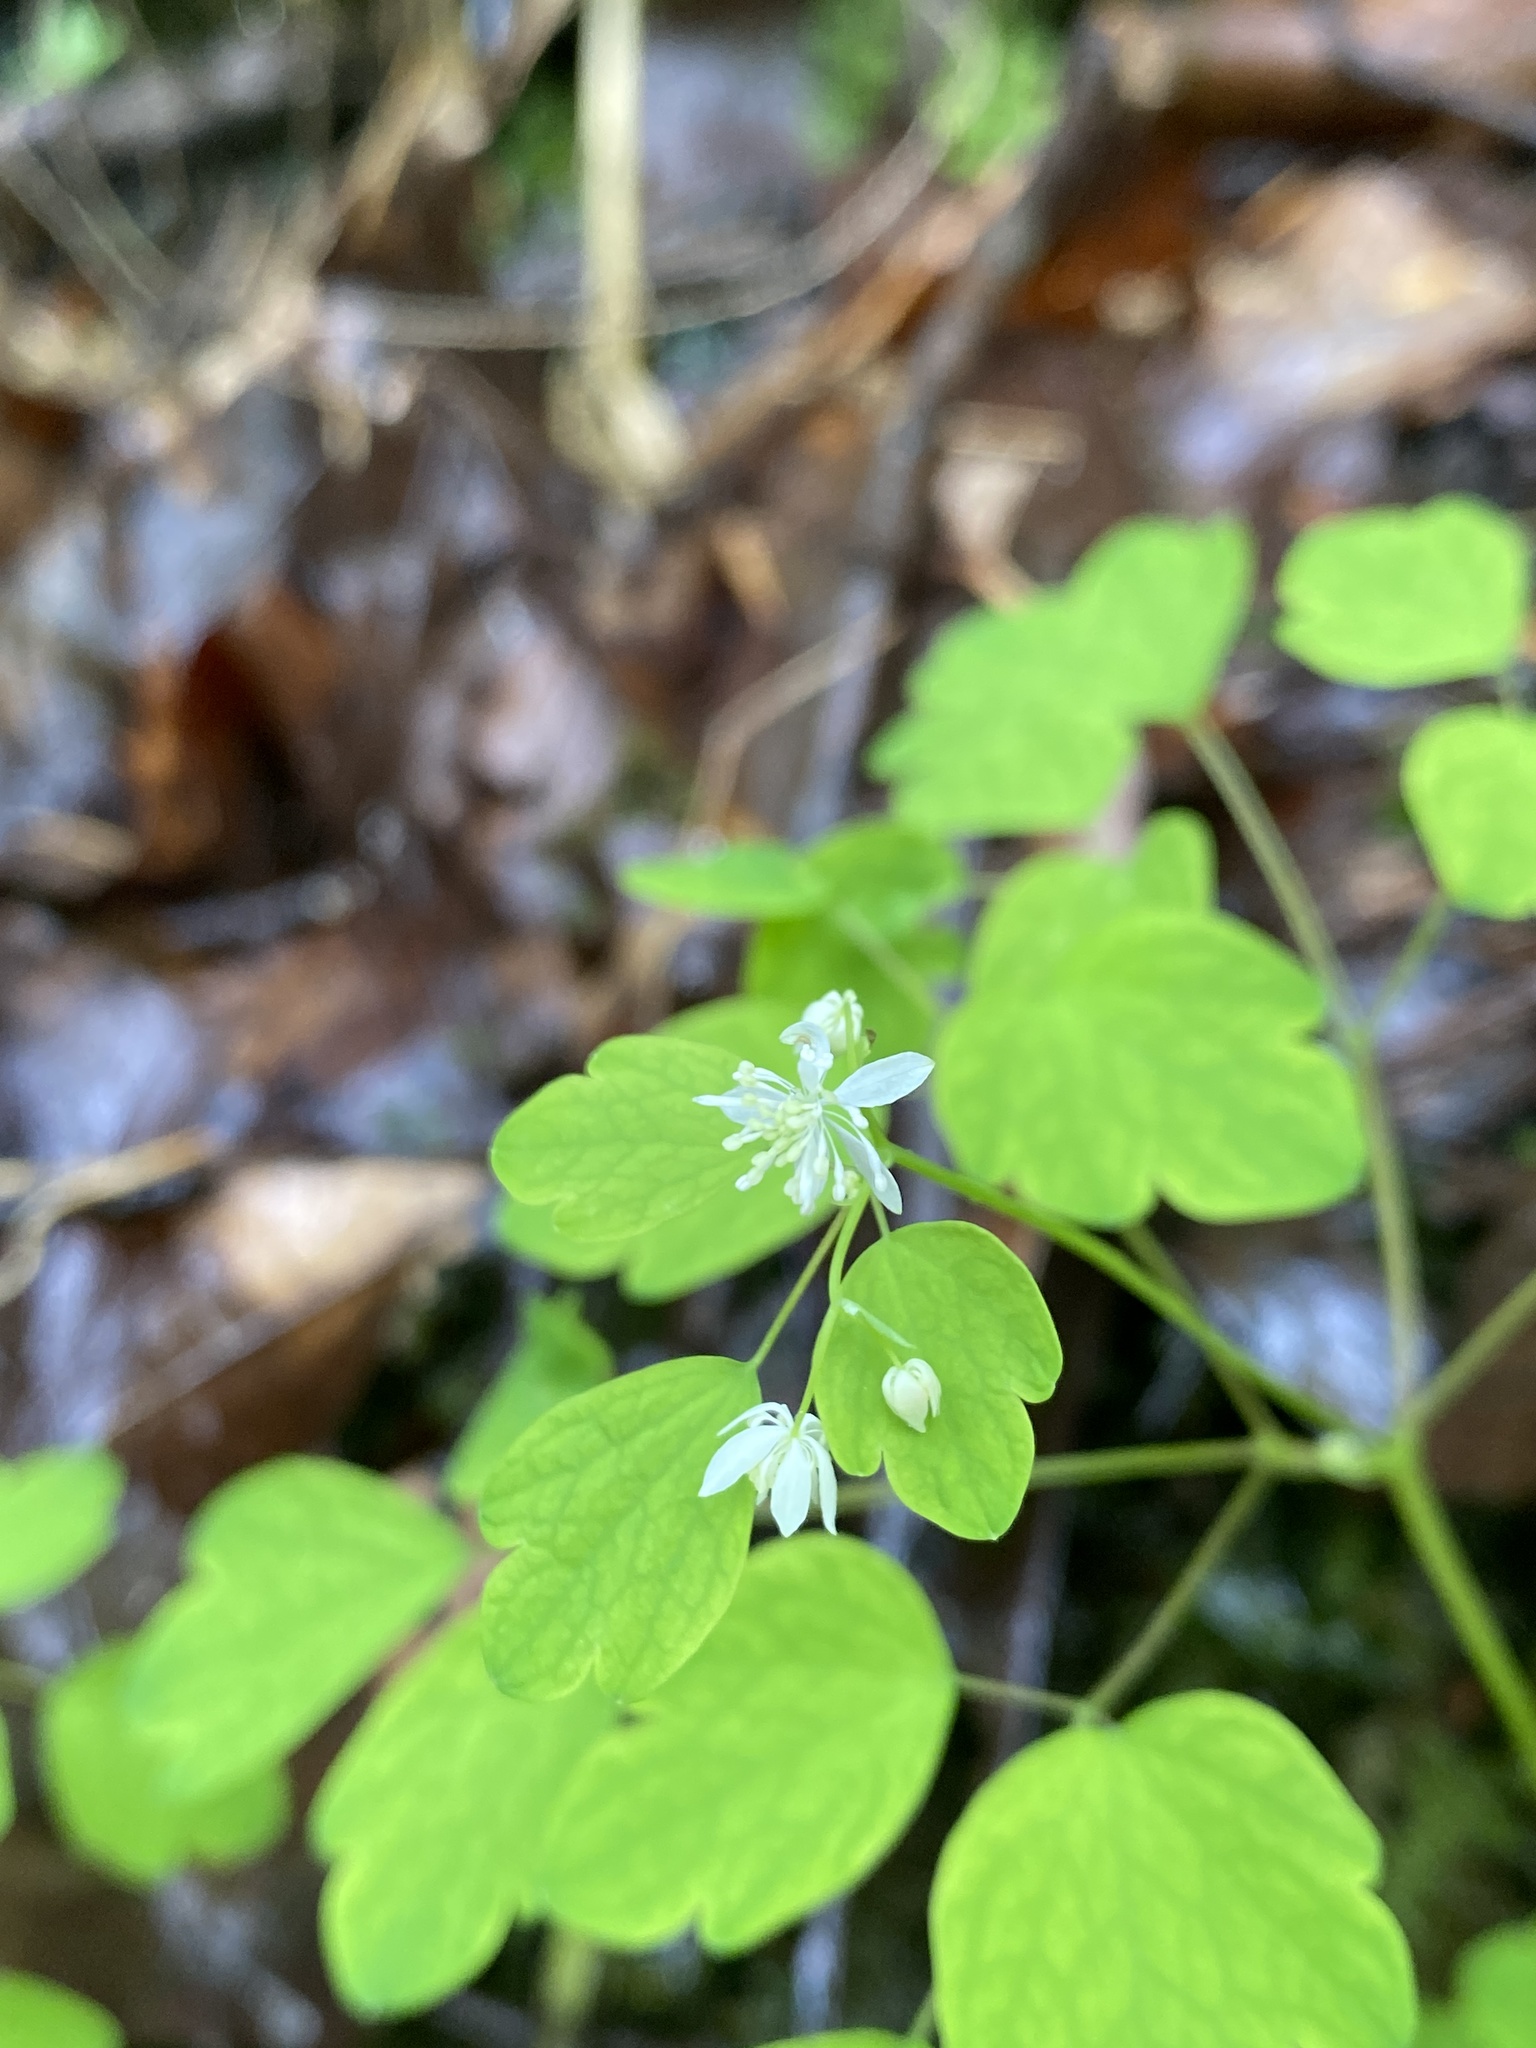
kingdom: Plantae
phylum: Tracheophyta
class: Magnoliopsida
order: Ranunculales
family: Ranunculaceae
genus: Thalictrum
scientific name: Thalictrum clavatum
